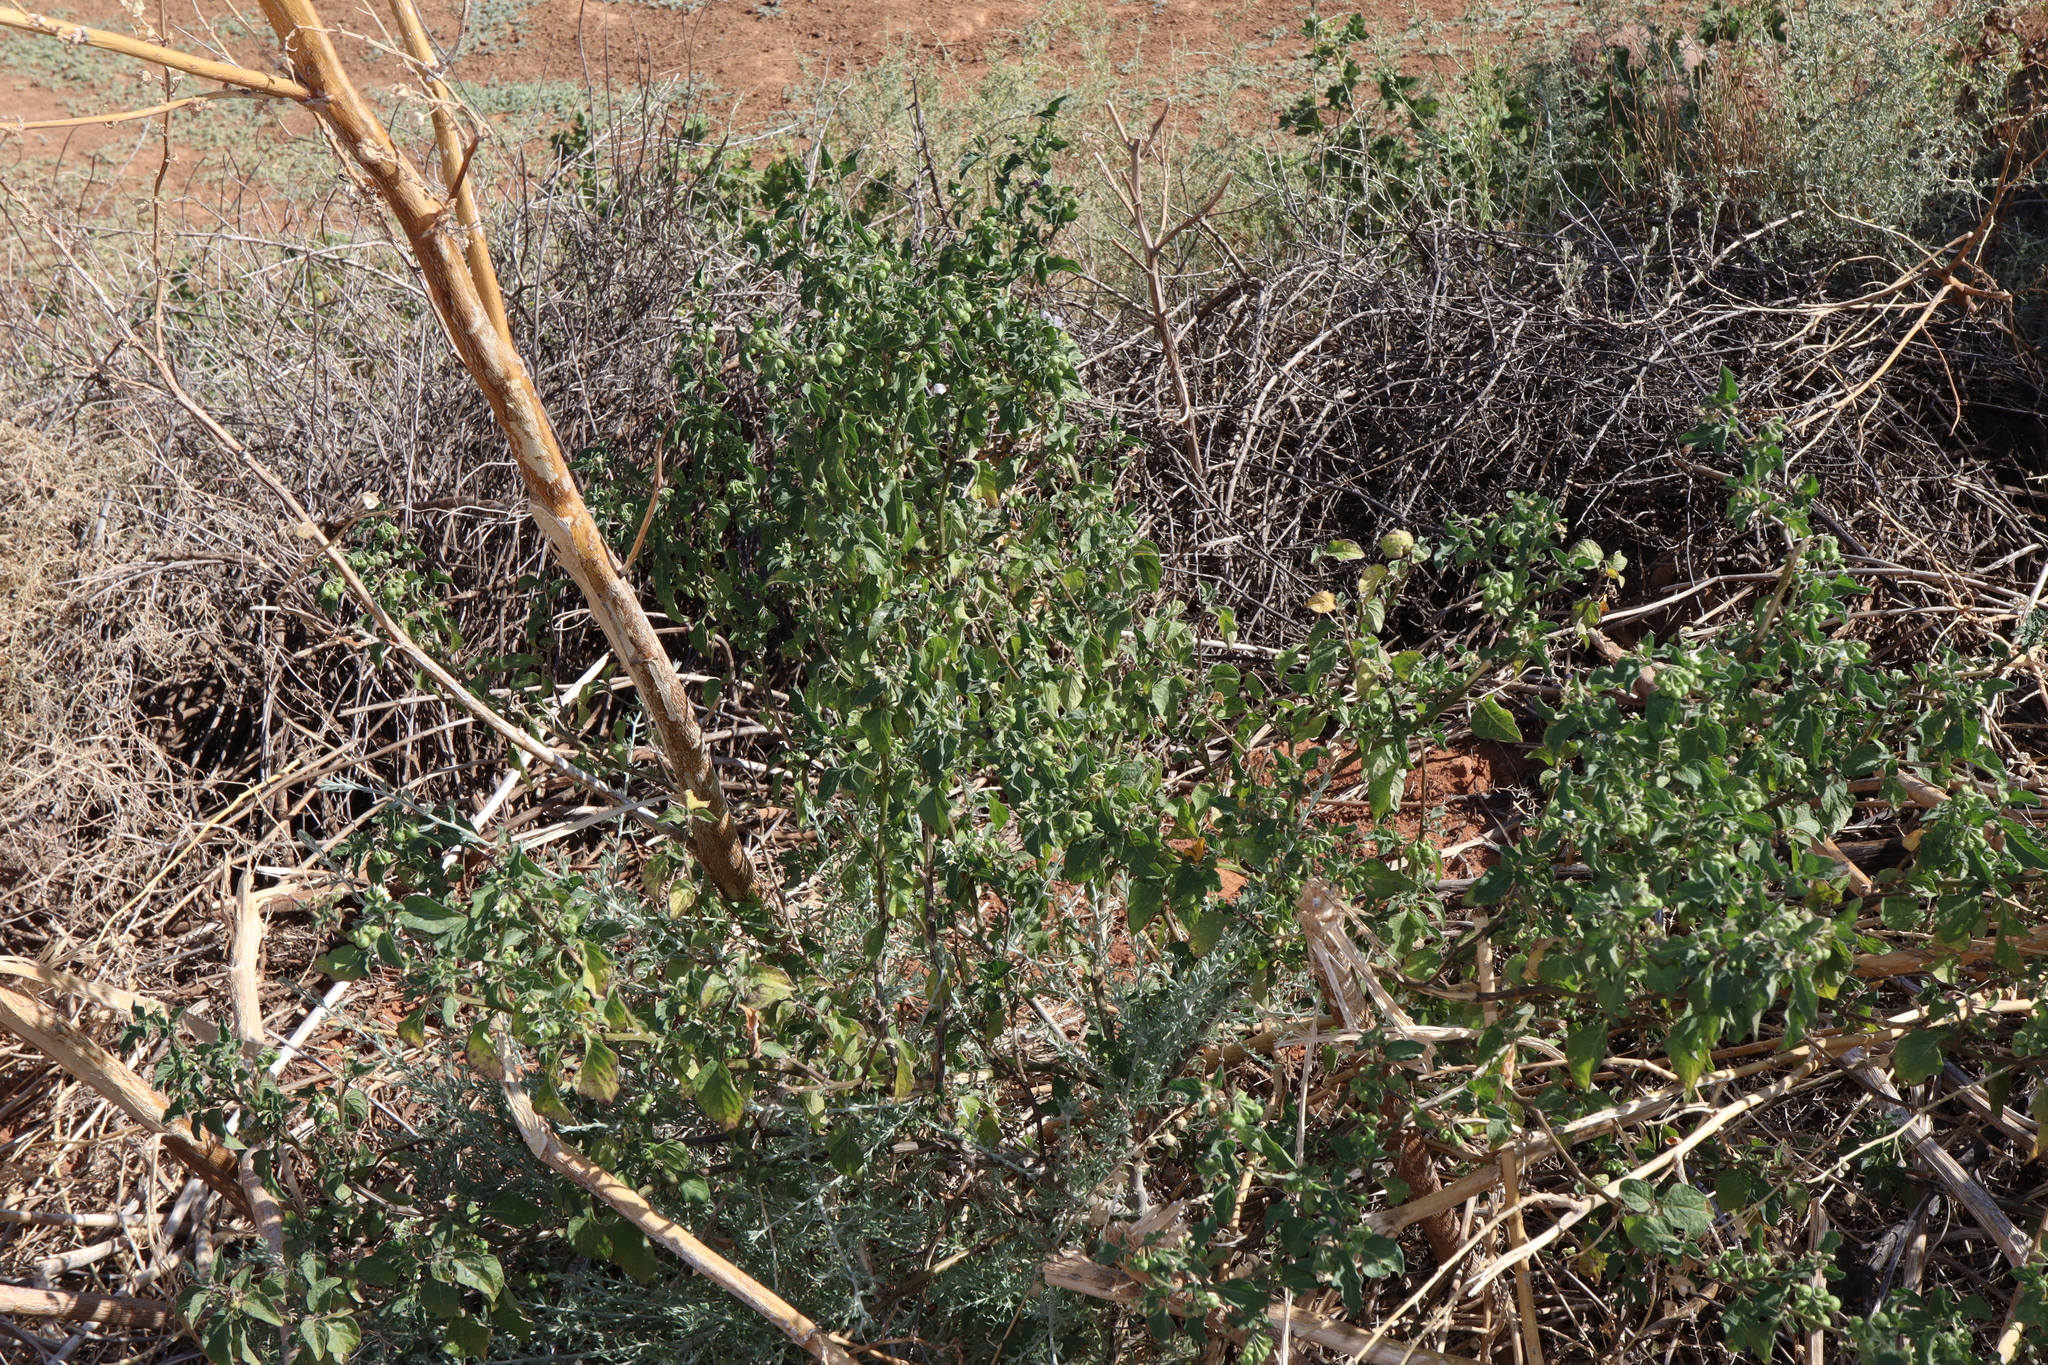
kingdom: Plantae
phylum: Tracheophyta
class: Magnoliopsida
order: Solanales
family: Solanaceae
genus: Solanum
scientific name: Solanum nigrum
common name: Black nightshade
